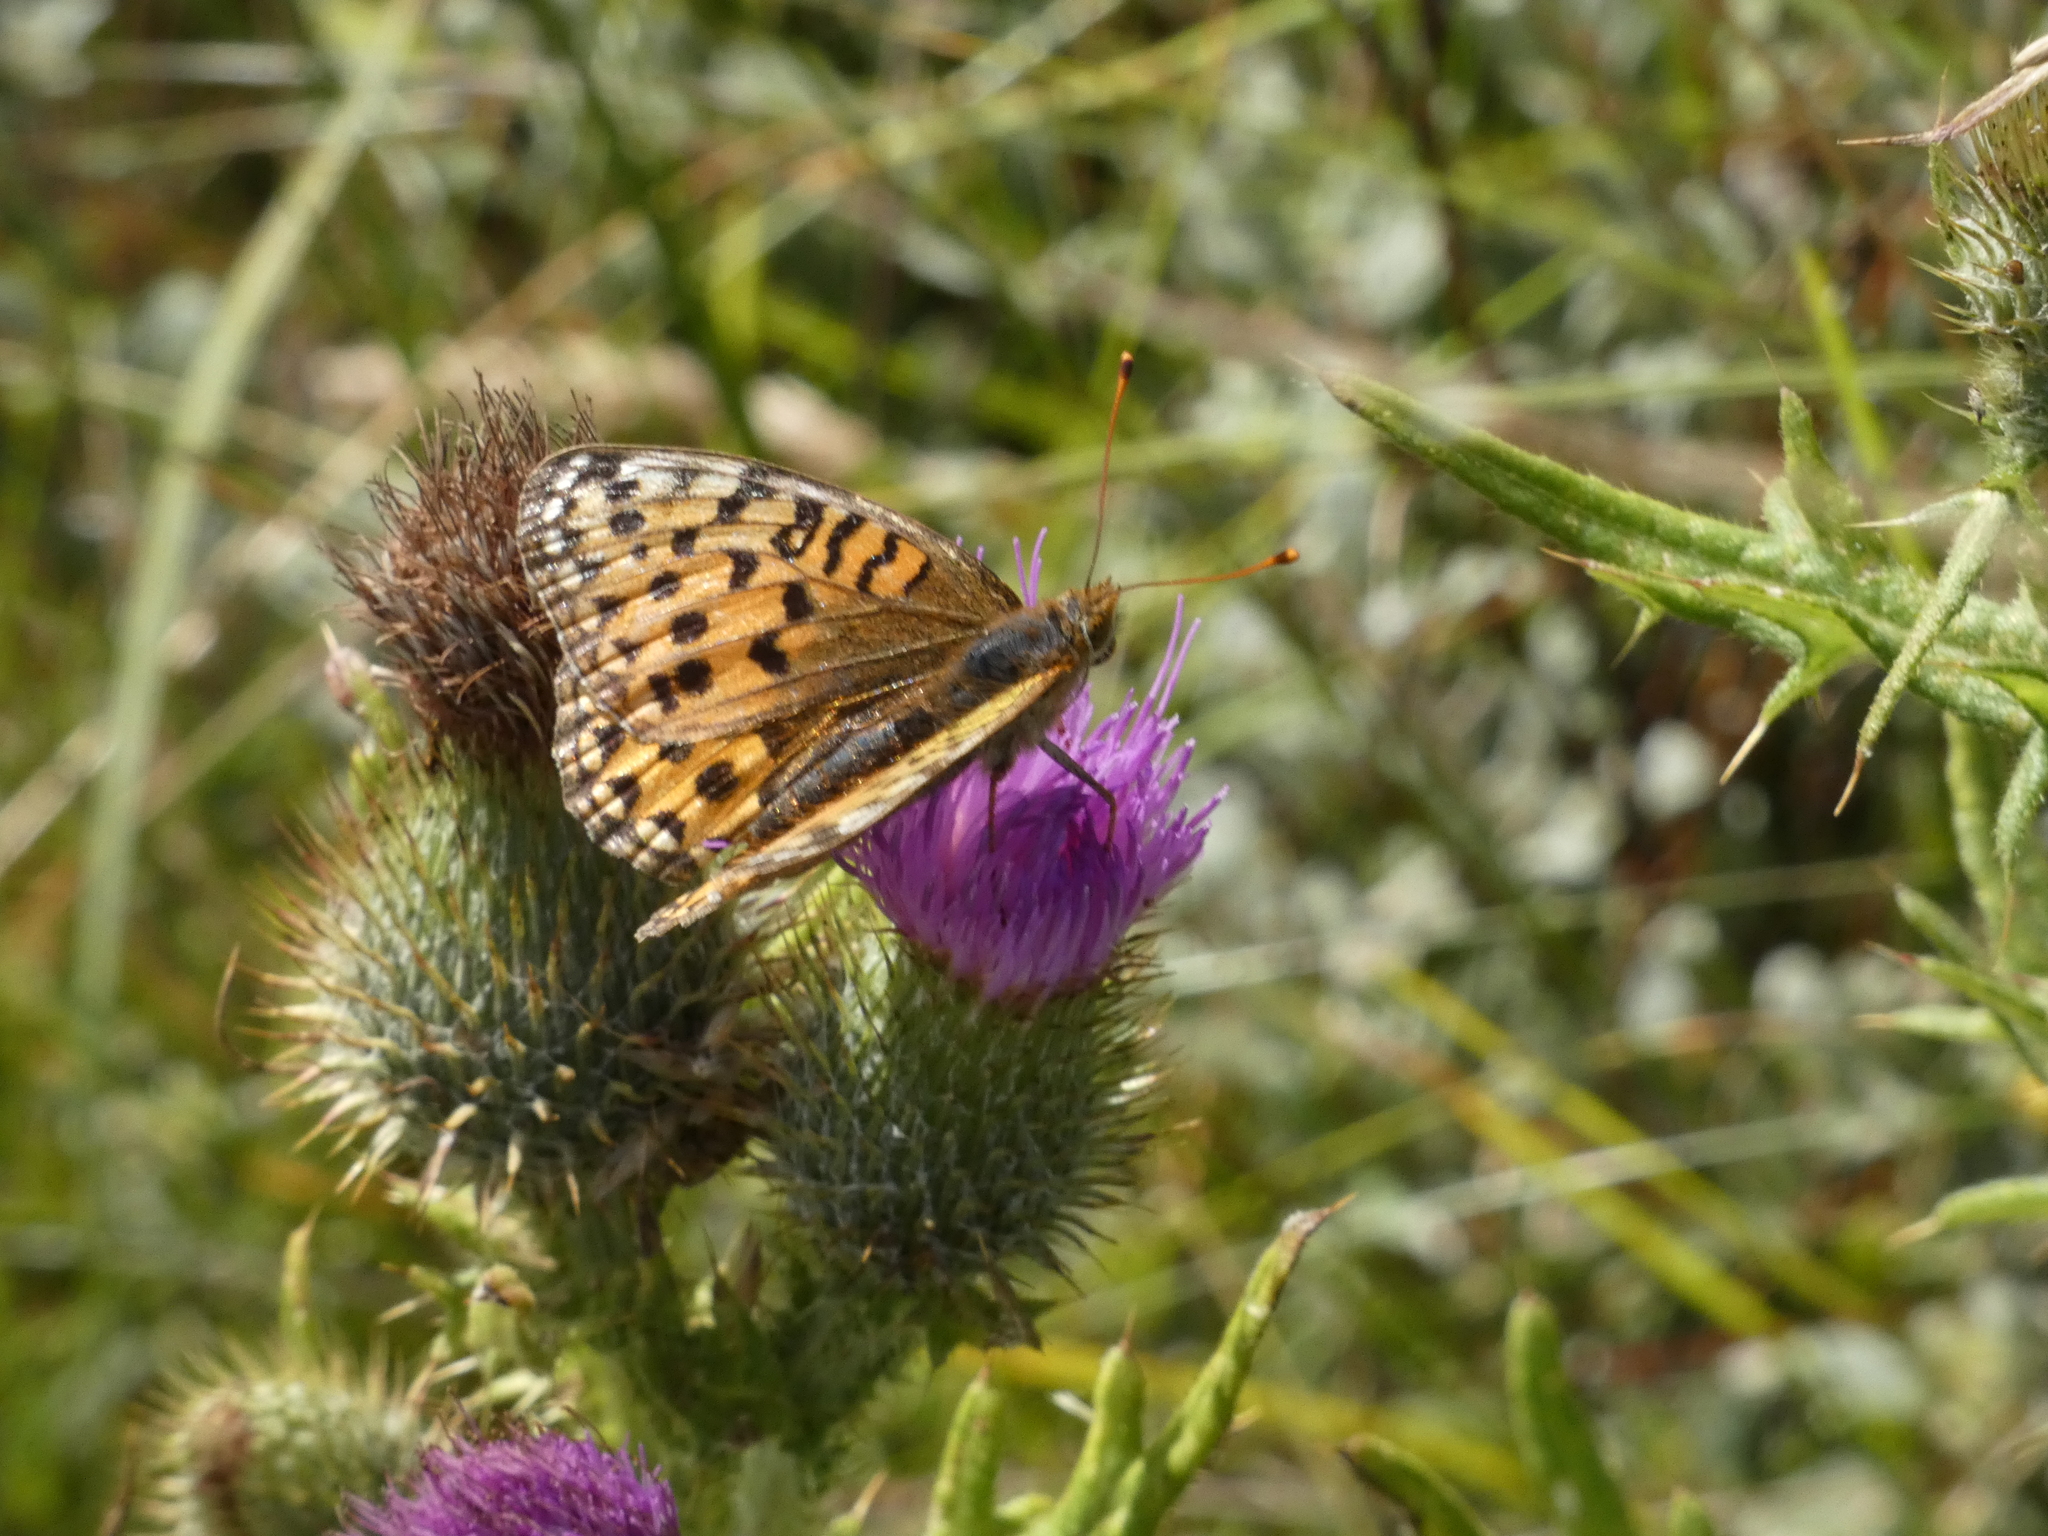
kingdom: Animalia
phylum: Arthropoda
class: Insecta
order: Lepidoptera
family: Nymphalidae
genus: Speyeria
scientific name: Speyeria aglaja
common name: Dark green fritillary
